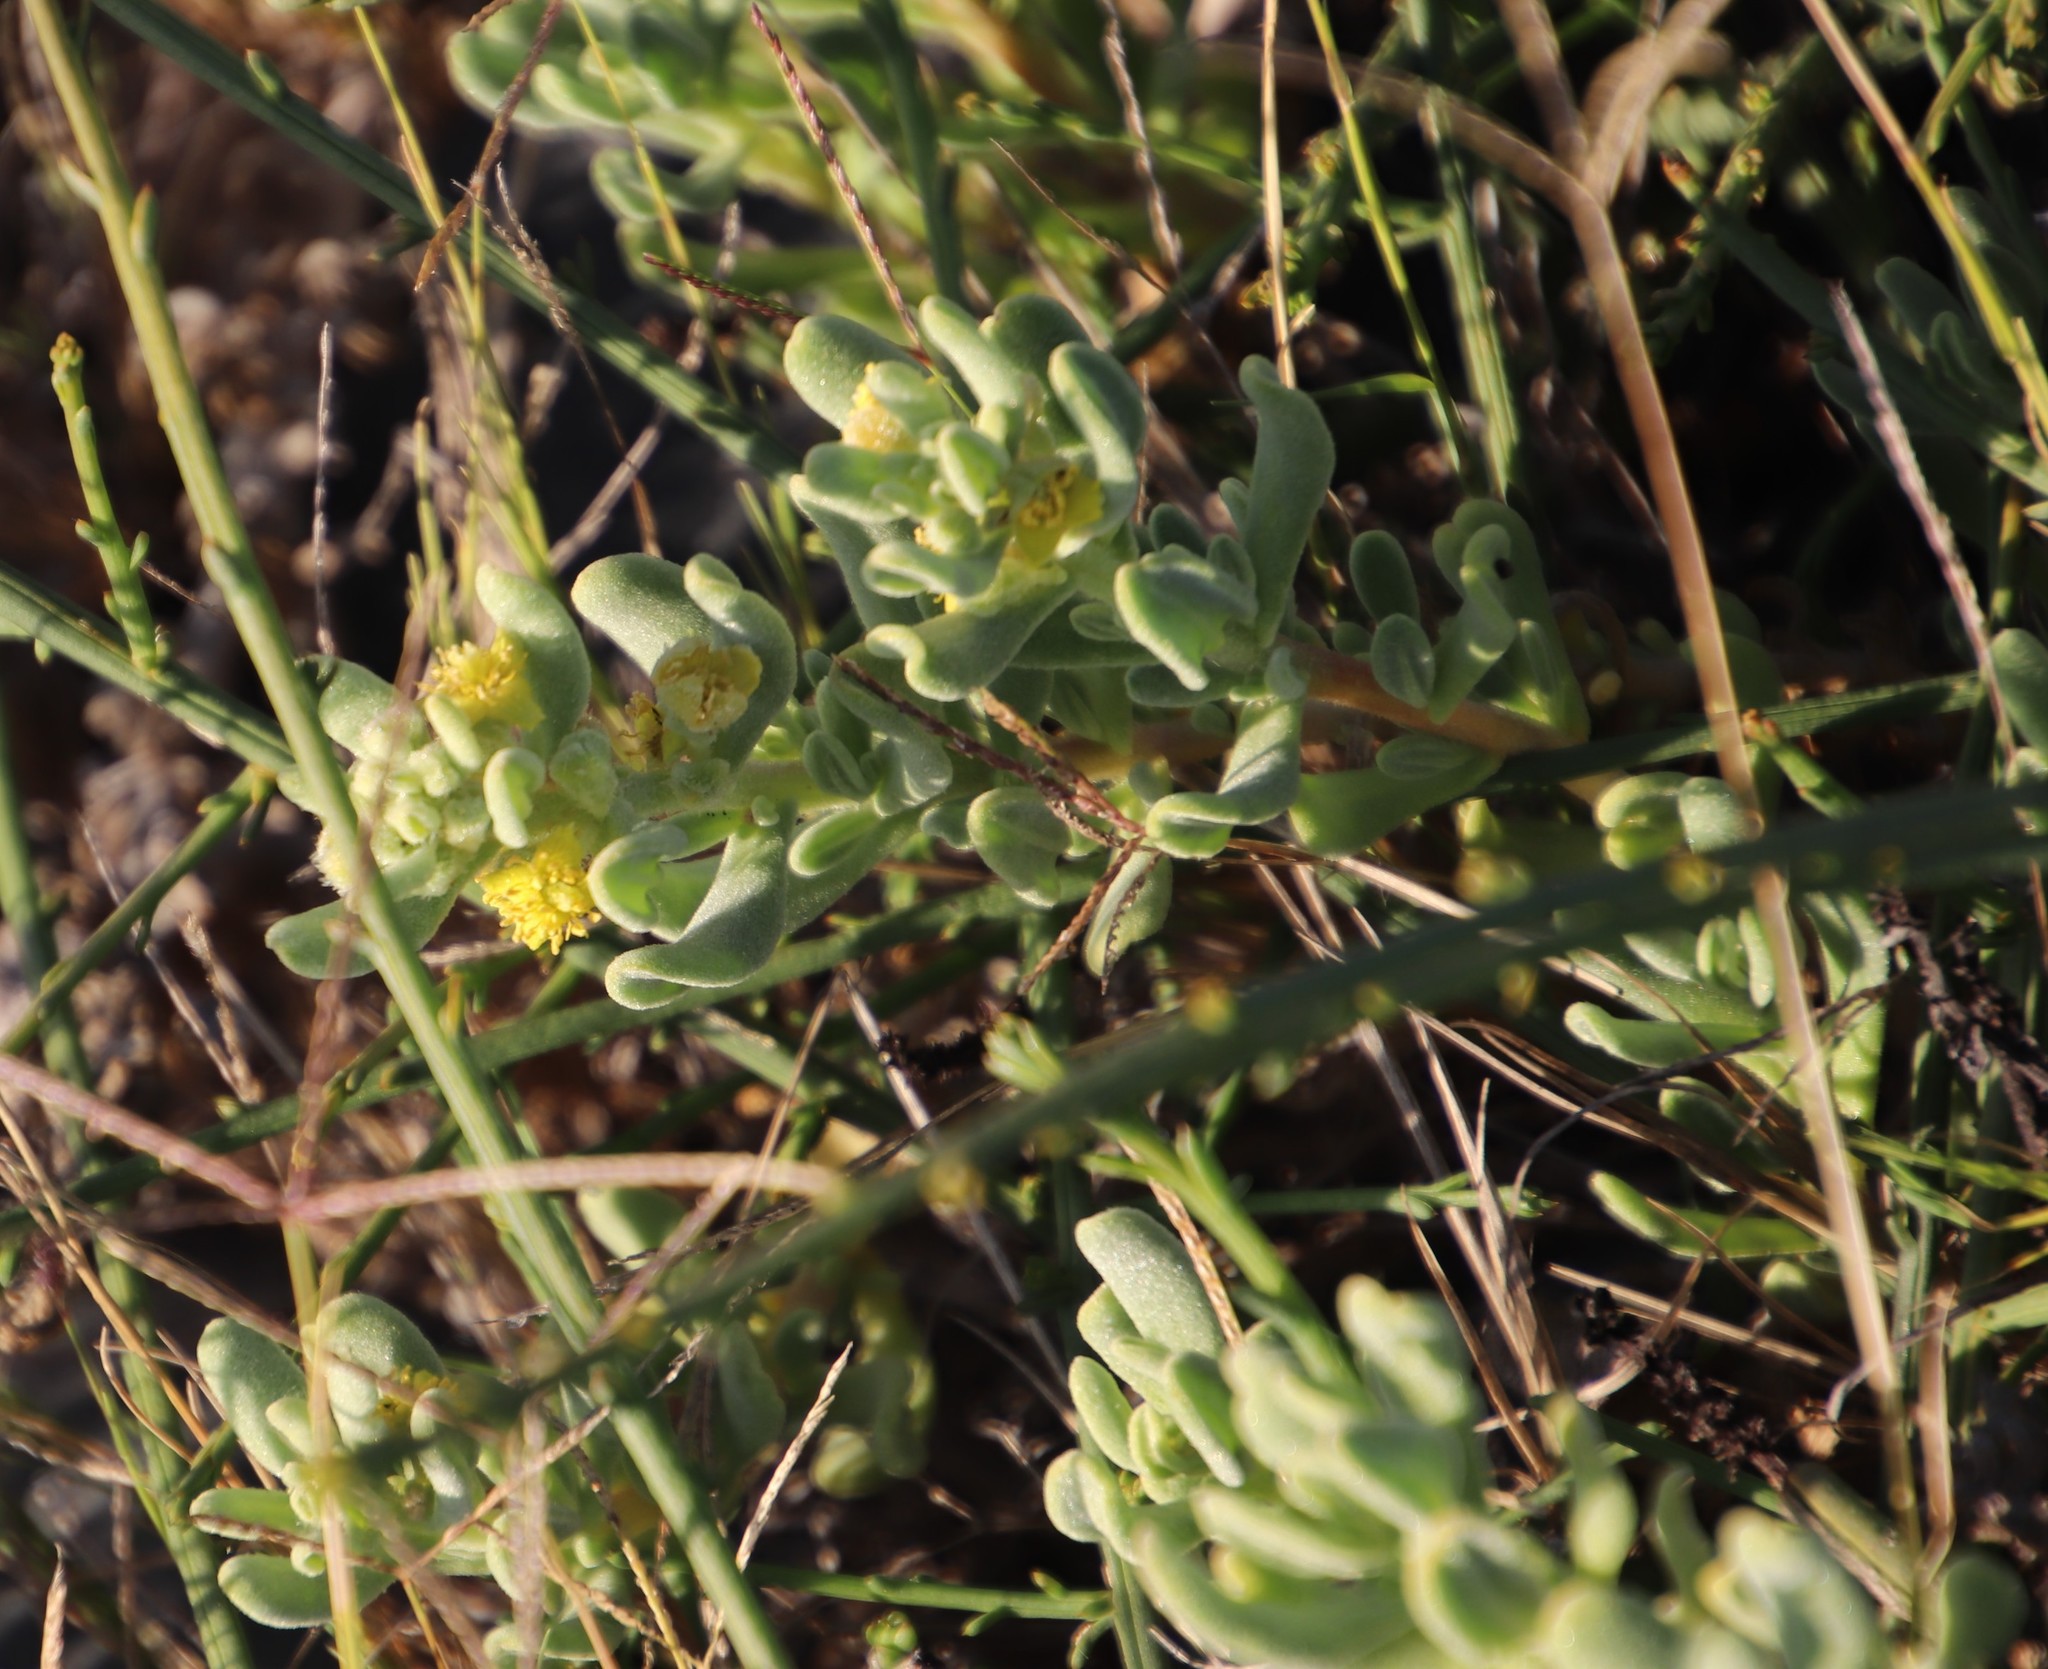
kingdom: Plantae
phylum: Tracheophyta
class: Magnoliopsida
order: Caryophyllales
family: Aizoaceae
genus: Tetragonia
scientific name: Tetragonia decumbens
